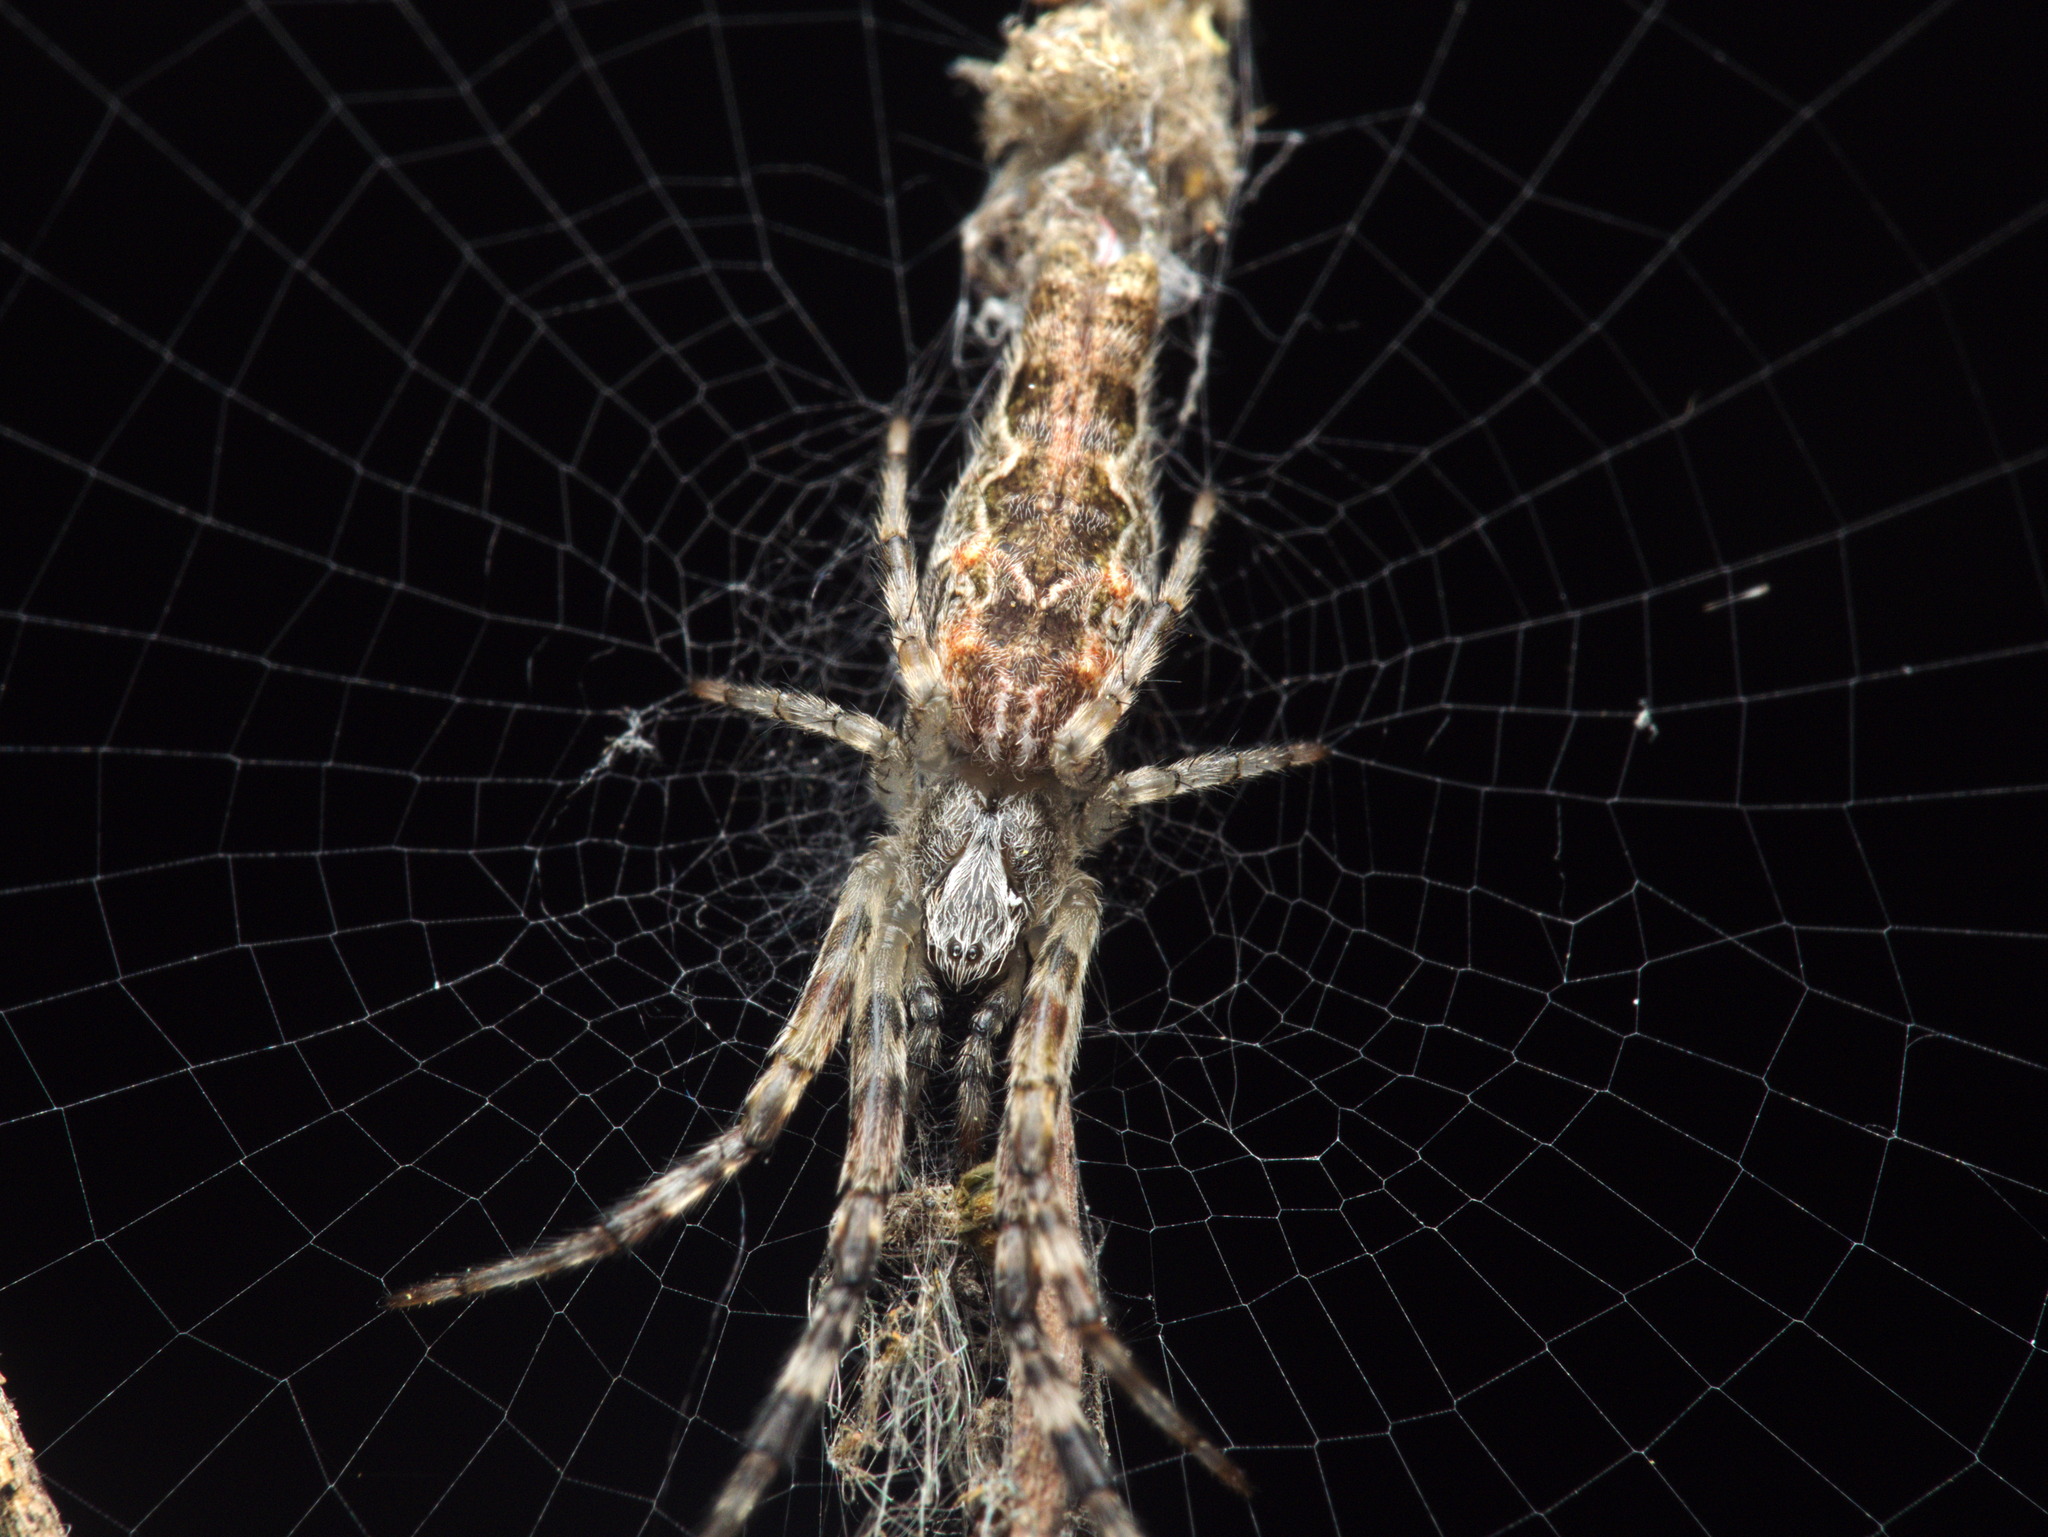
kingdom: Animalia
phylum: Arthropoda
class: Arachnida
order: Araneae
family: Araneidae
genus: Allocyclosa
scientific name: Allocyclosa bifurca
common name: Orb weavers
